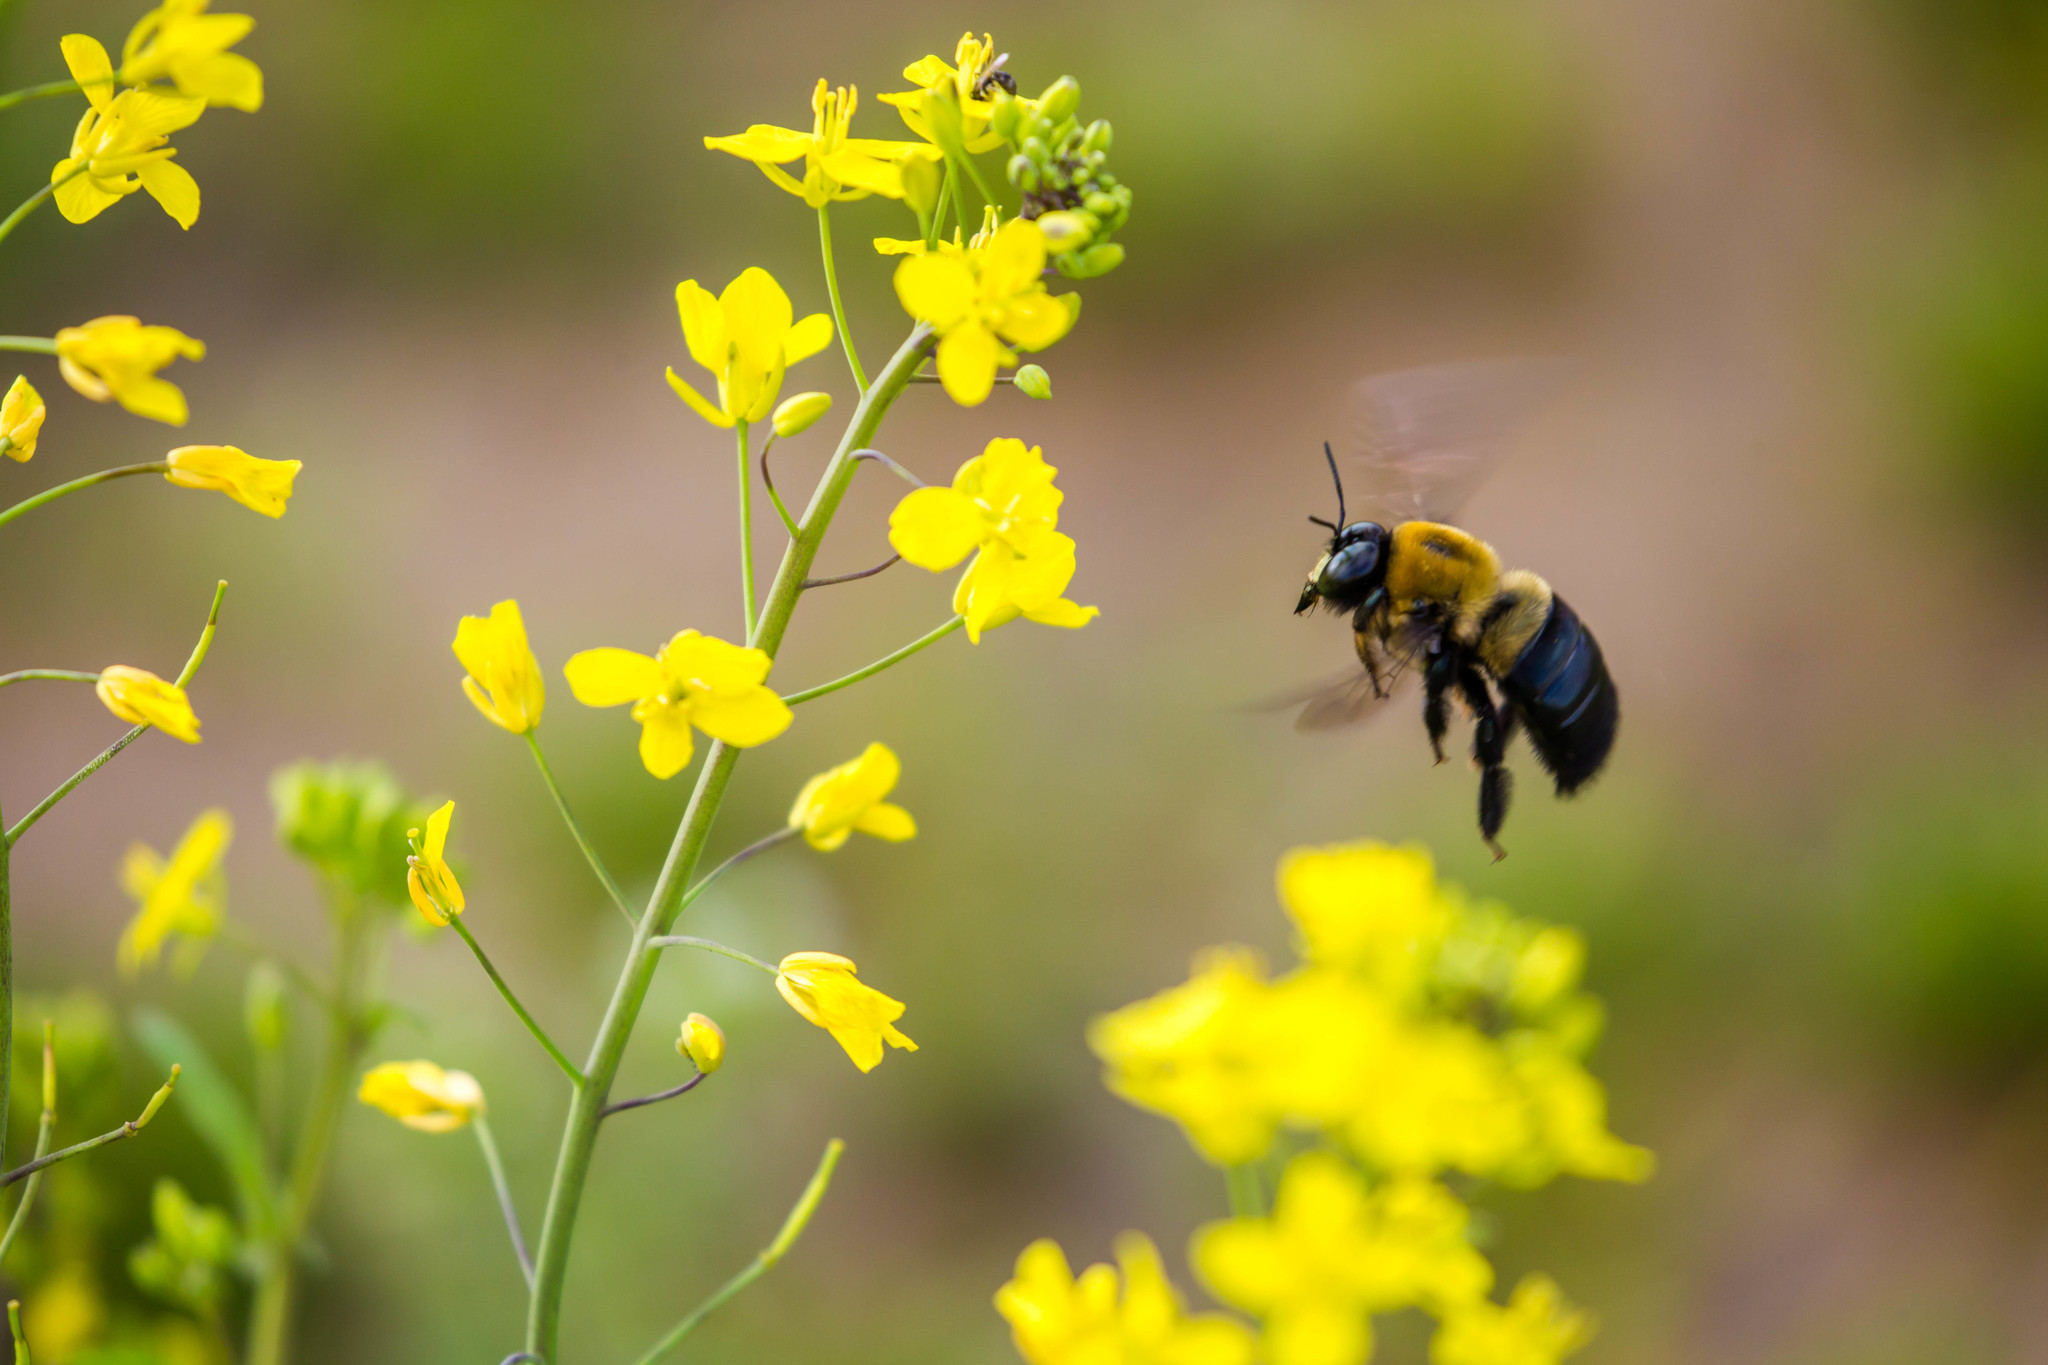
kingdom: Animalia
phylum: Arthropoda
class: Insecta
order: Hymenoptera
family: Apidae
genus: Xylocopa
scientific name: Xylocopa virginica
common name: Carpenter bee
